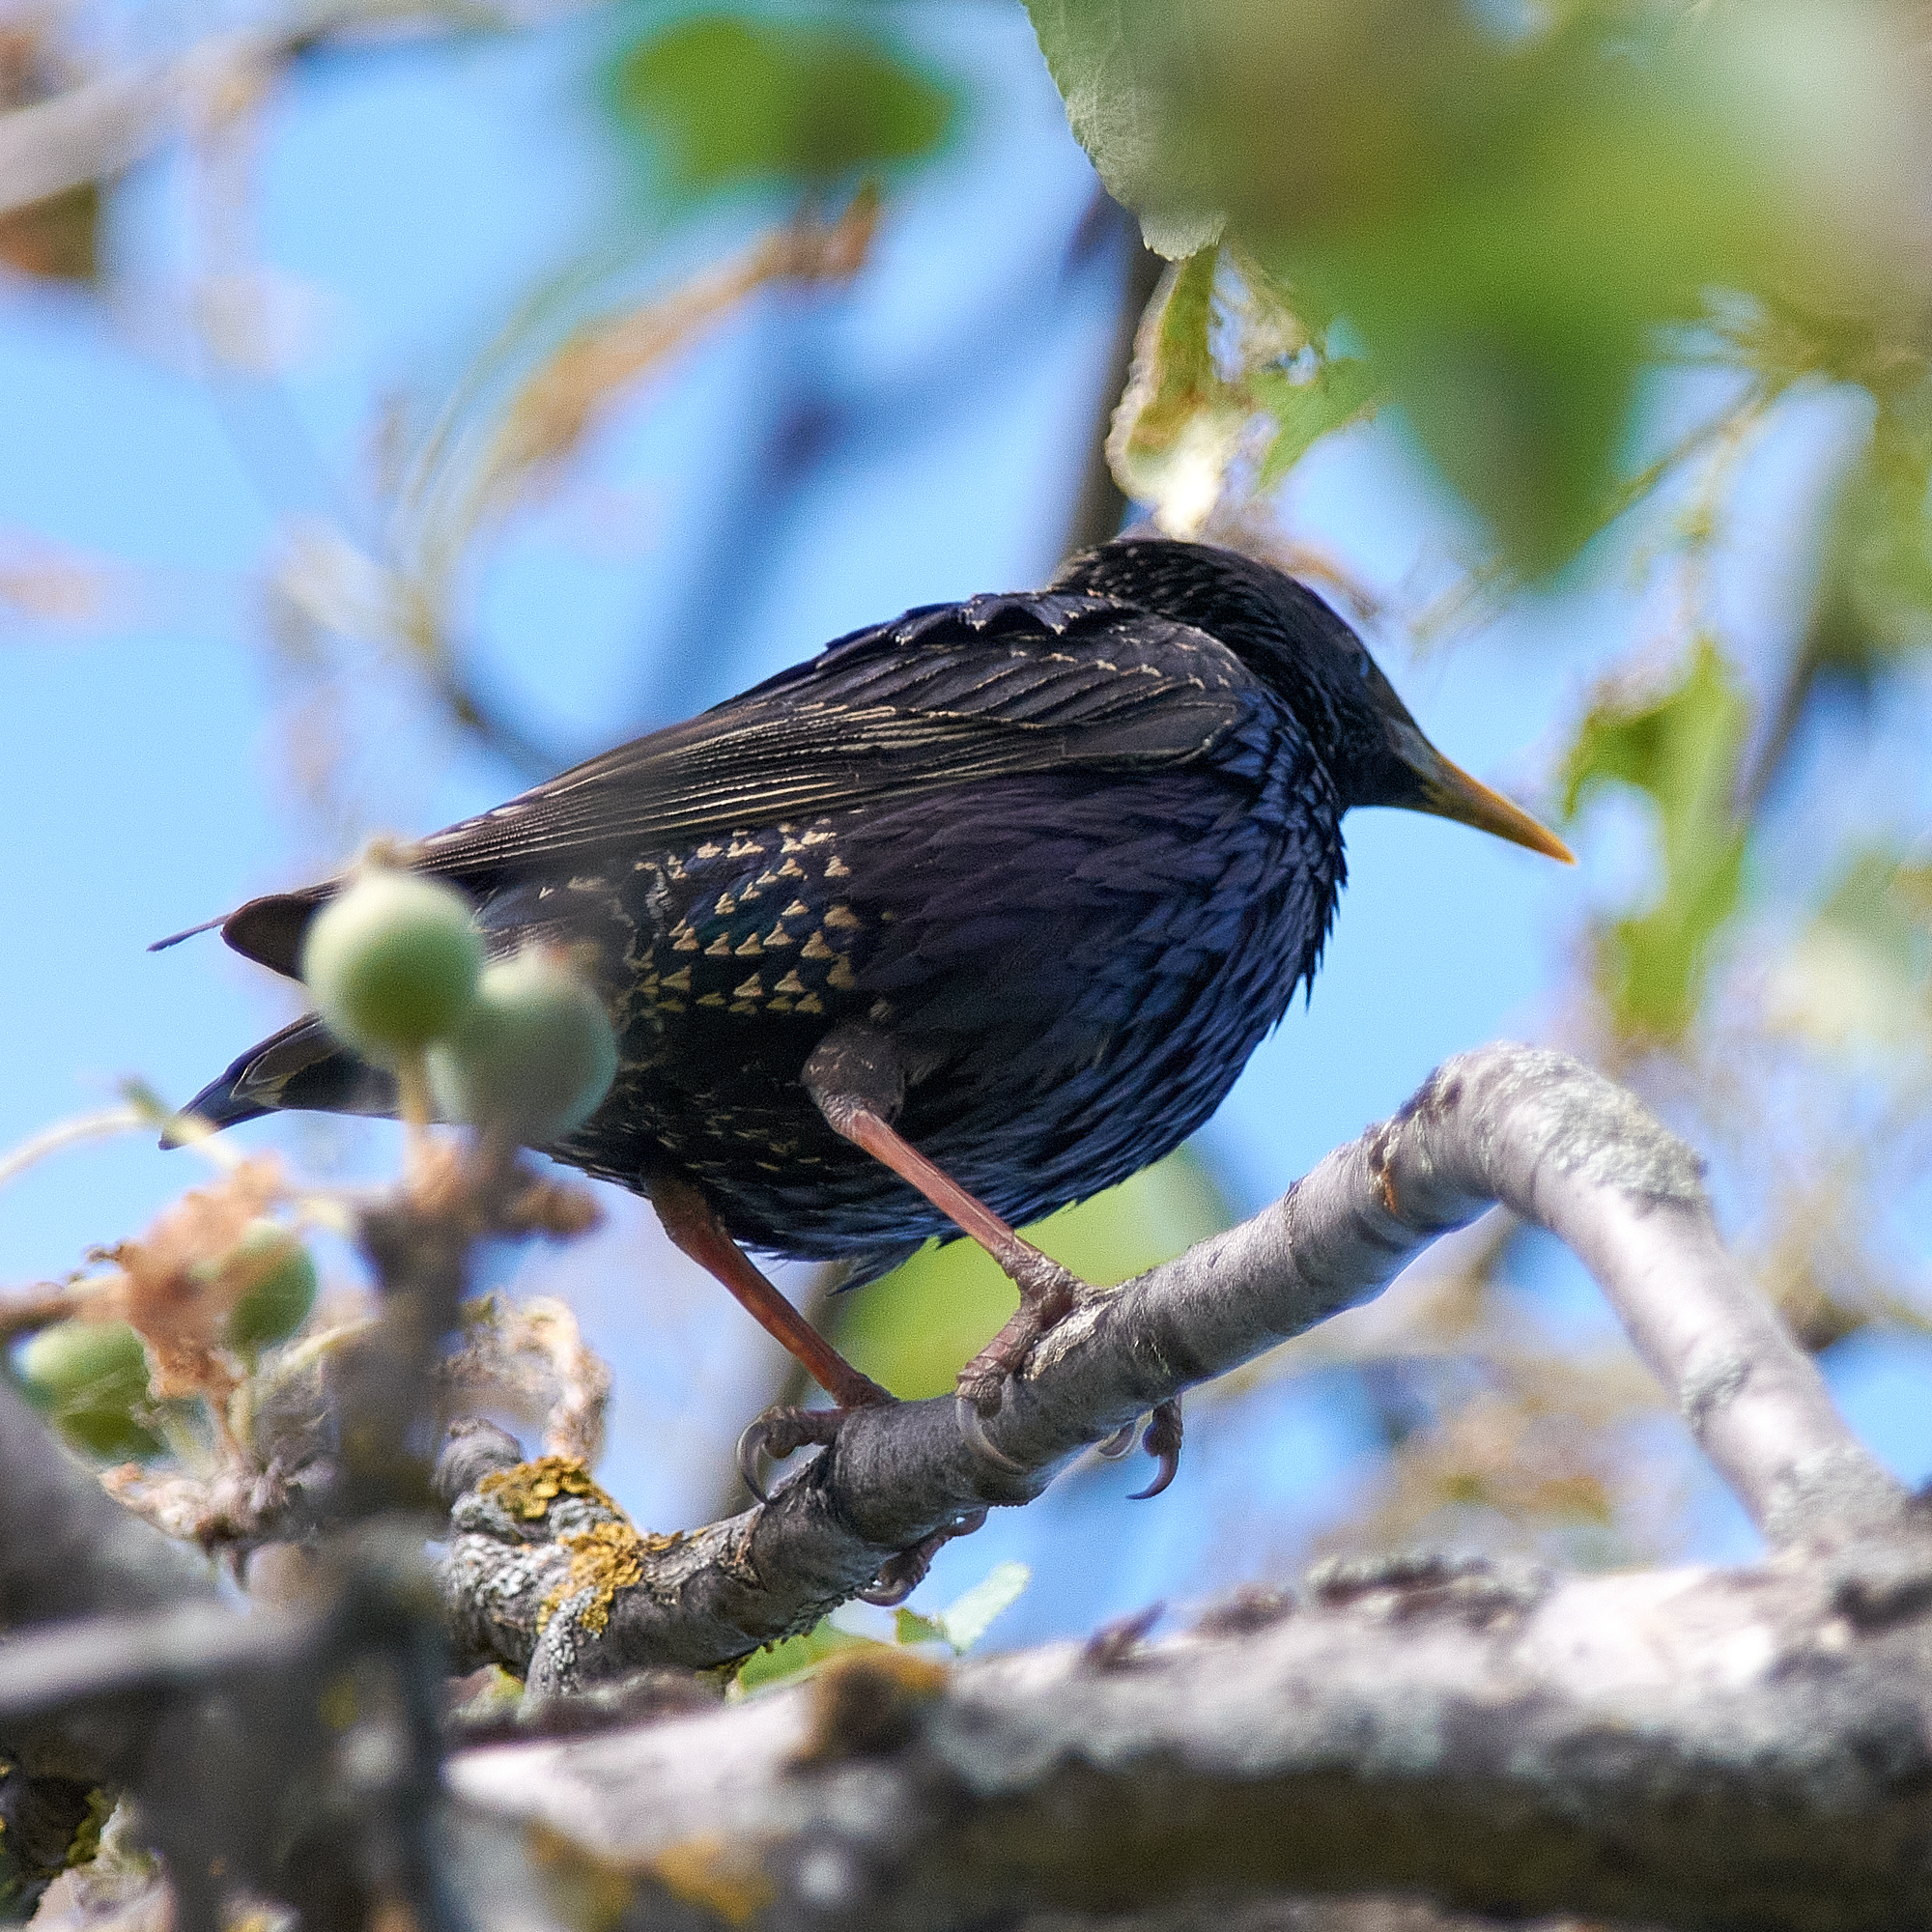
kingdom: Animalia
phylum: Chordata
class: Aves
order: Passeriformes
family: Sturnidae
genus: Sturnus
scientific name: Sturnus vulgaris
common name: Common starling
